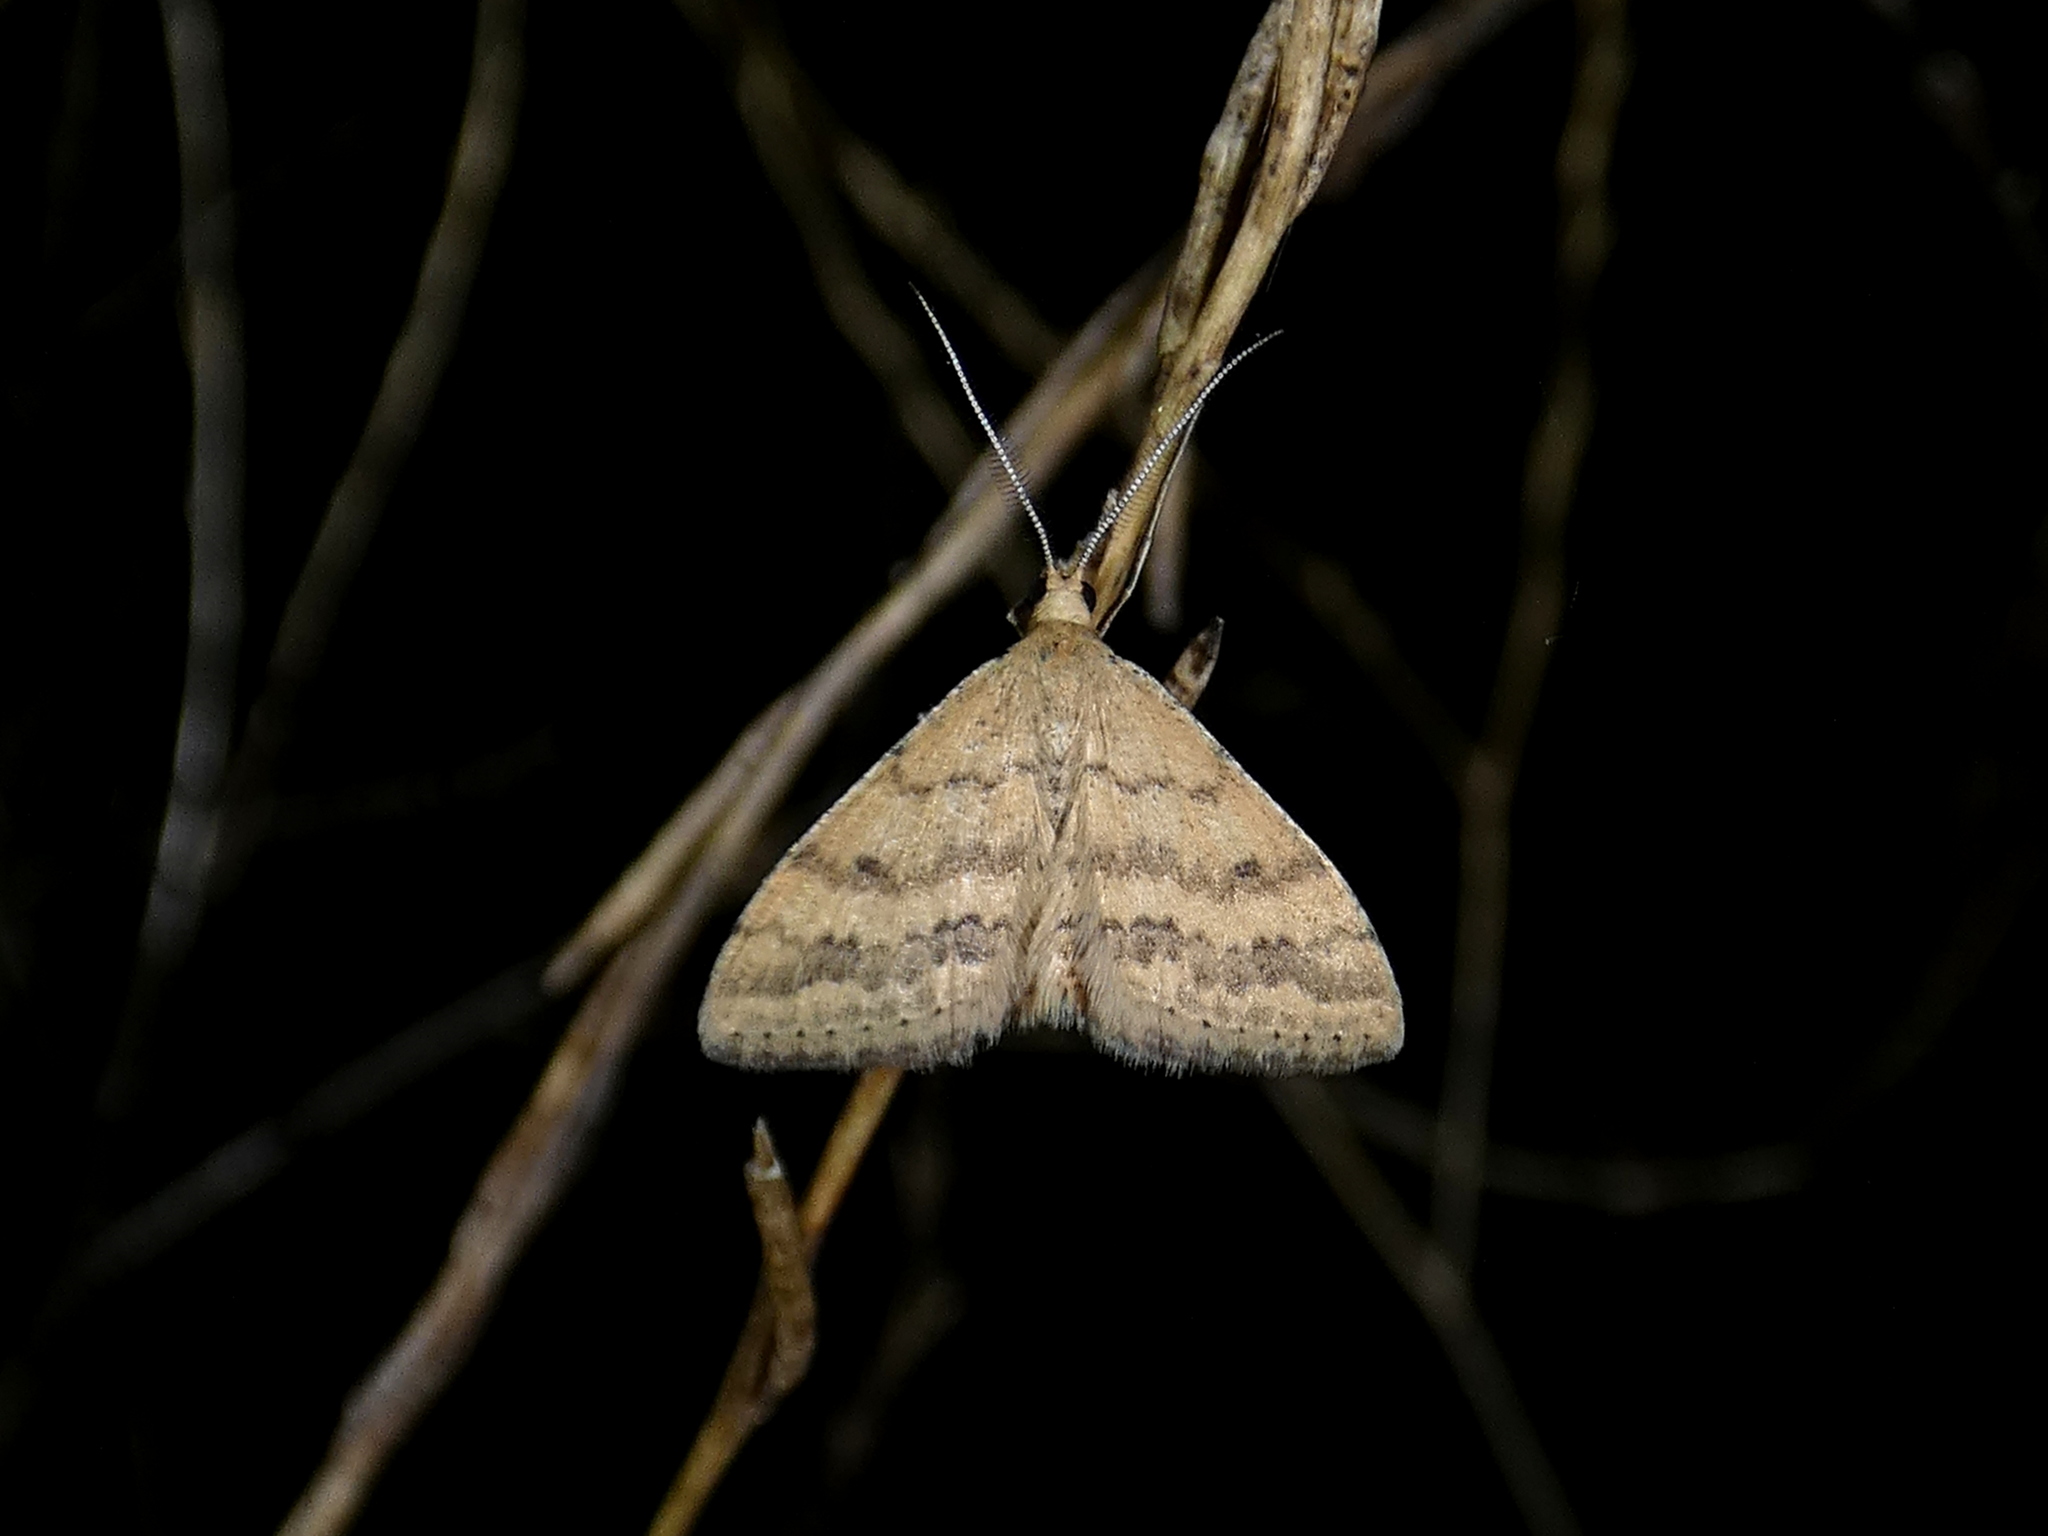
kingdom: Animalia
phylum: Arthropoda
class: Insecta
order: Lepidoptera
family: Geometridae
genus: Scopula
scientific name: Scopula rubraria
